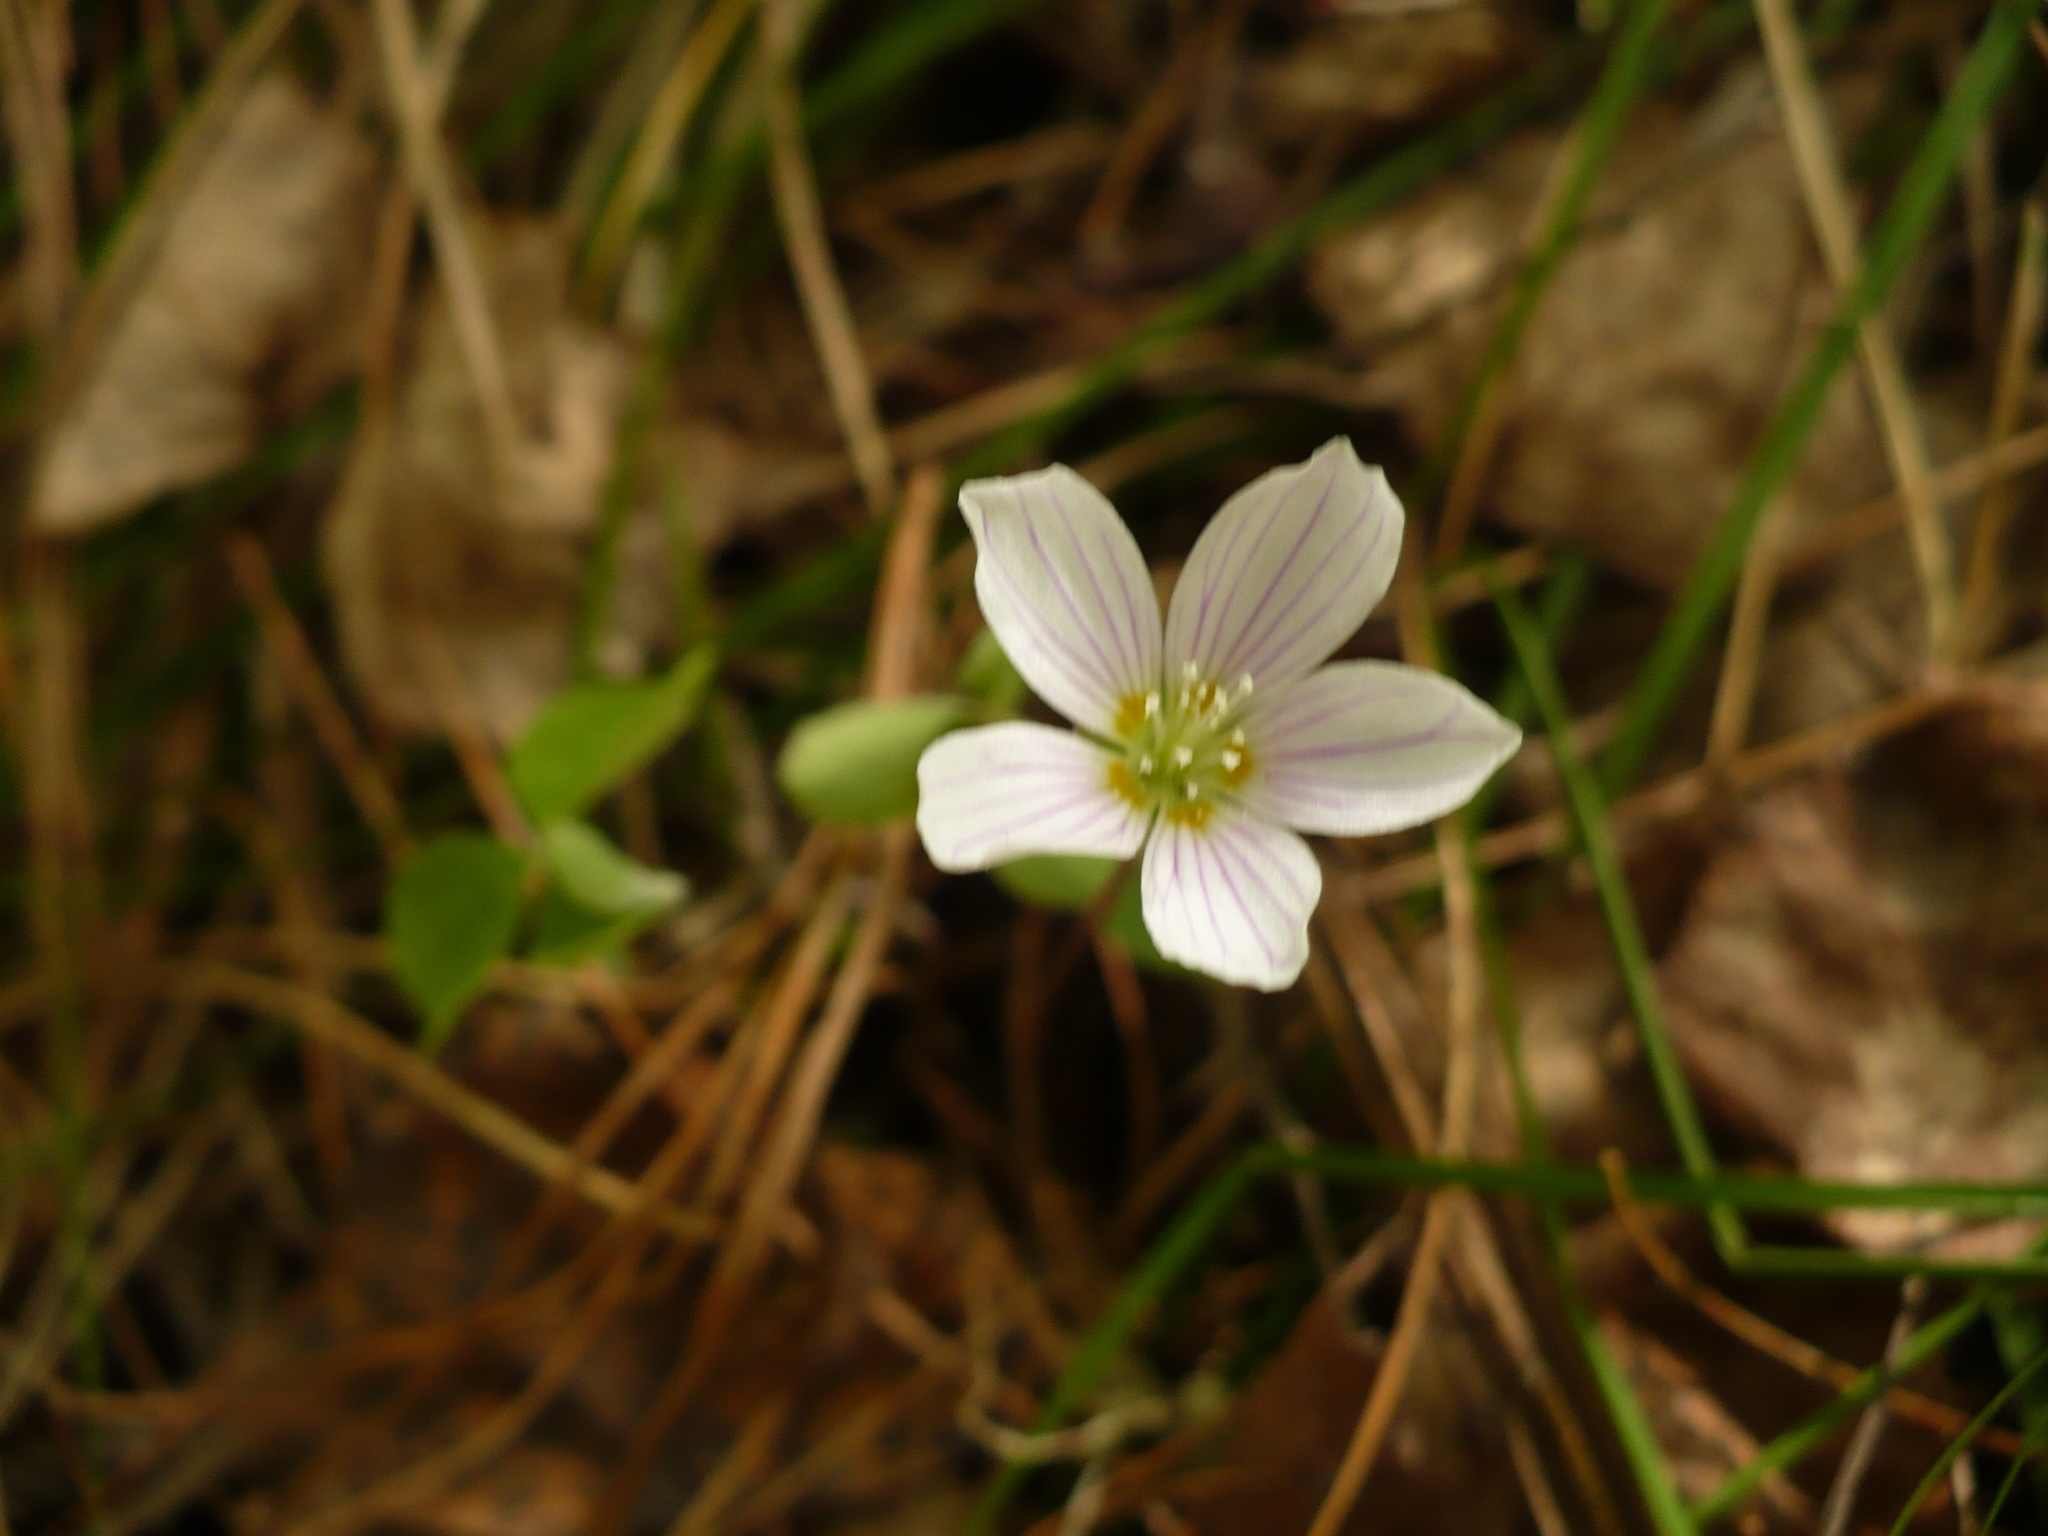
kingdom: Plantae
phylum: Tracheophyta
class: Magnoliopsida
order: Oxalidales
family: Oxalidaceae
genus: Oxalis
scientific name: Oxalis acetosella
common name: Wood-sorrel
